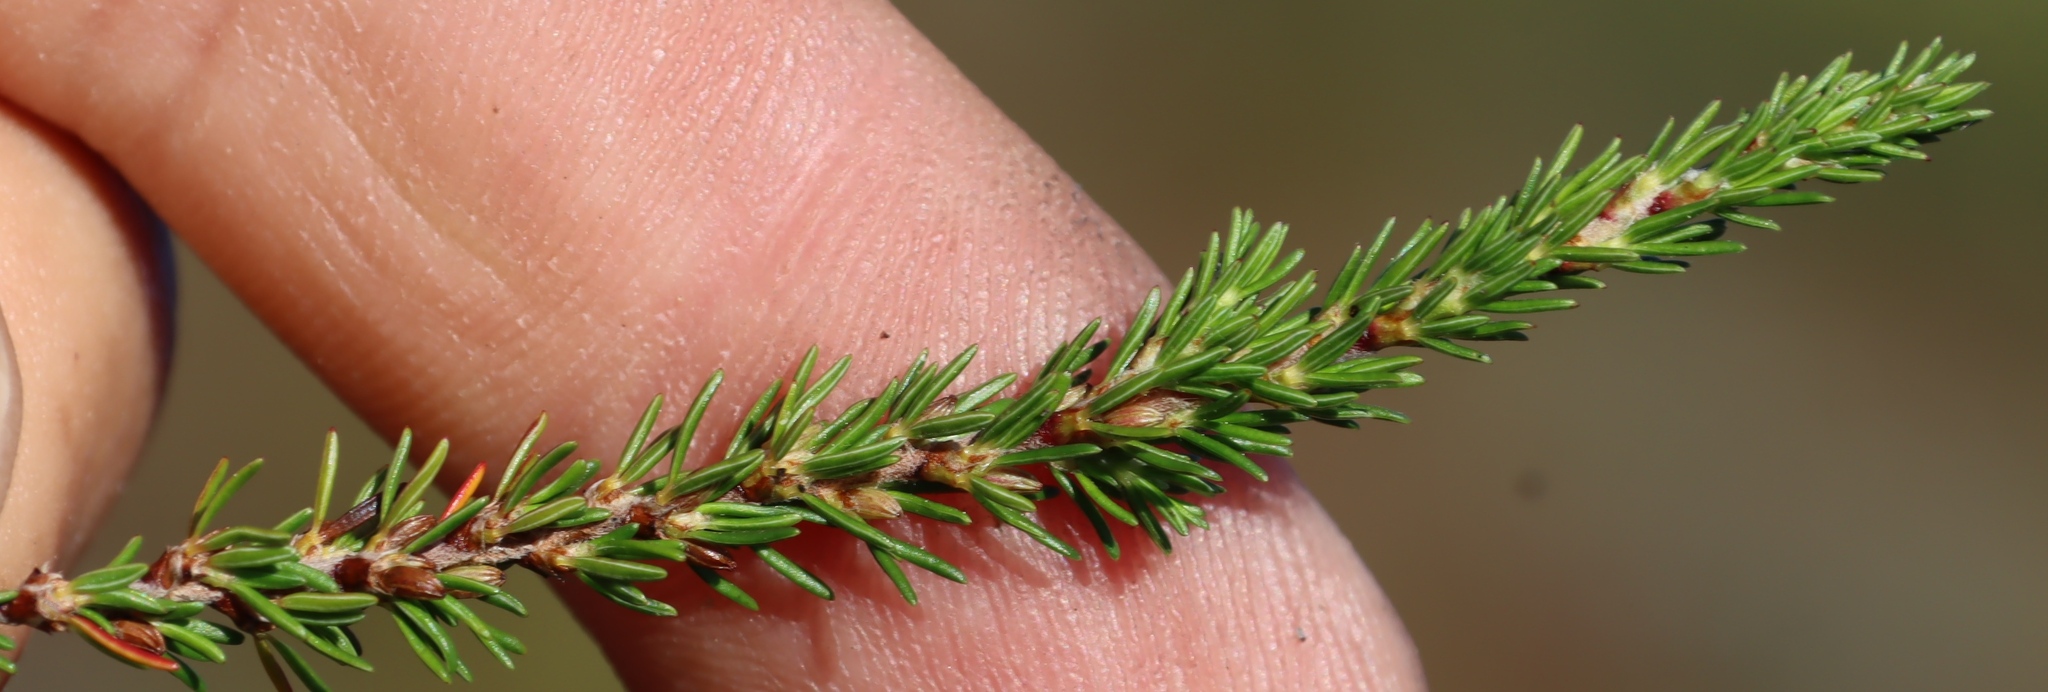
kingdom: Plantae
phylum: Tracheophyta
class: Magnoliopsida
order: Rosales
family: Rosaceae
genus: Cliffortia
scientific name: Cliffortia linearifolia
